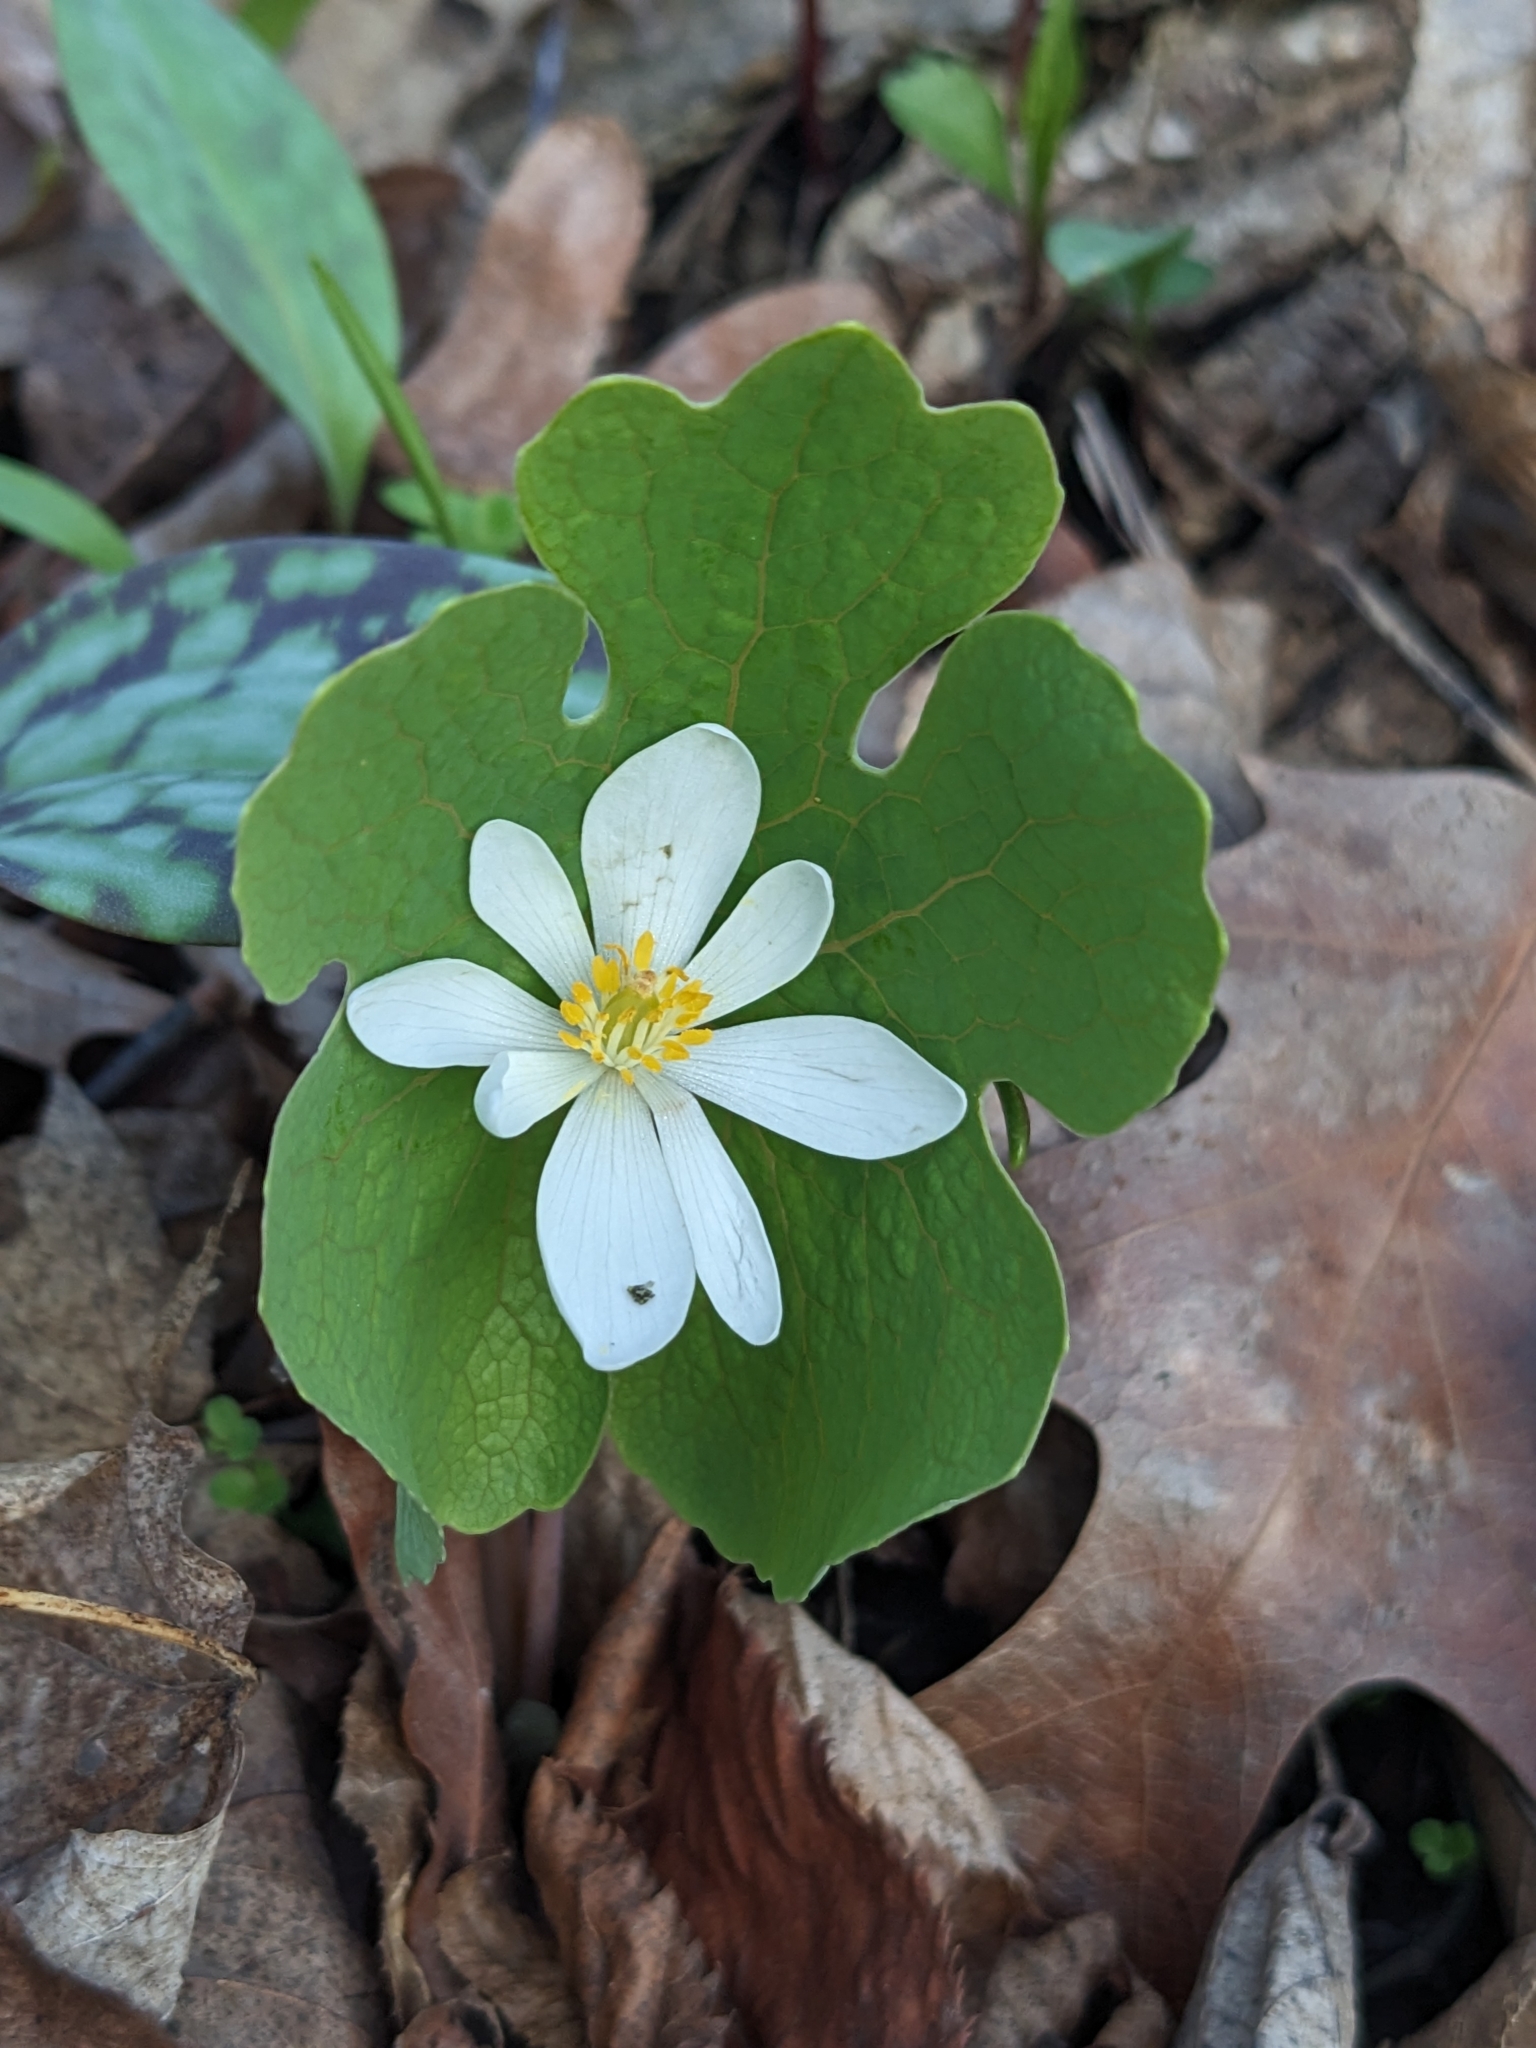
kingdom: Plantae
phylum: Tracheophyta
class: Magnoliopsida
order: Ranunculales
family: Papaveraceae
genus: Sanguinaria
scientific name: Sanguinaria canadensis
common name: Bloodroot
